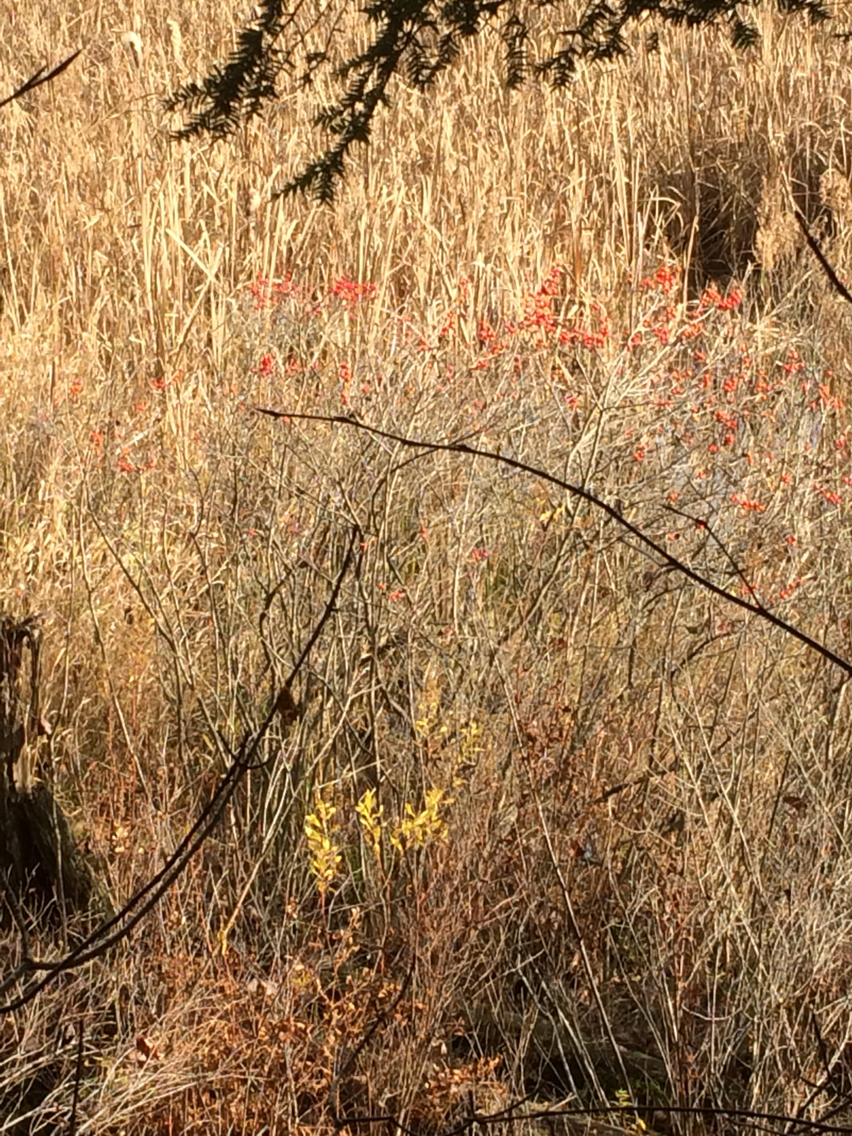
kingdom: Plantae
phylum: Tracheophyta
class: Magnoliopsida
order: Aquifoliales
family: Aquifoliaceae
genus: Ilex
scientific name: Ilex verticillata
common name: Virginia winterberry
